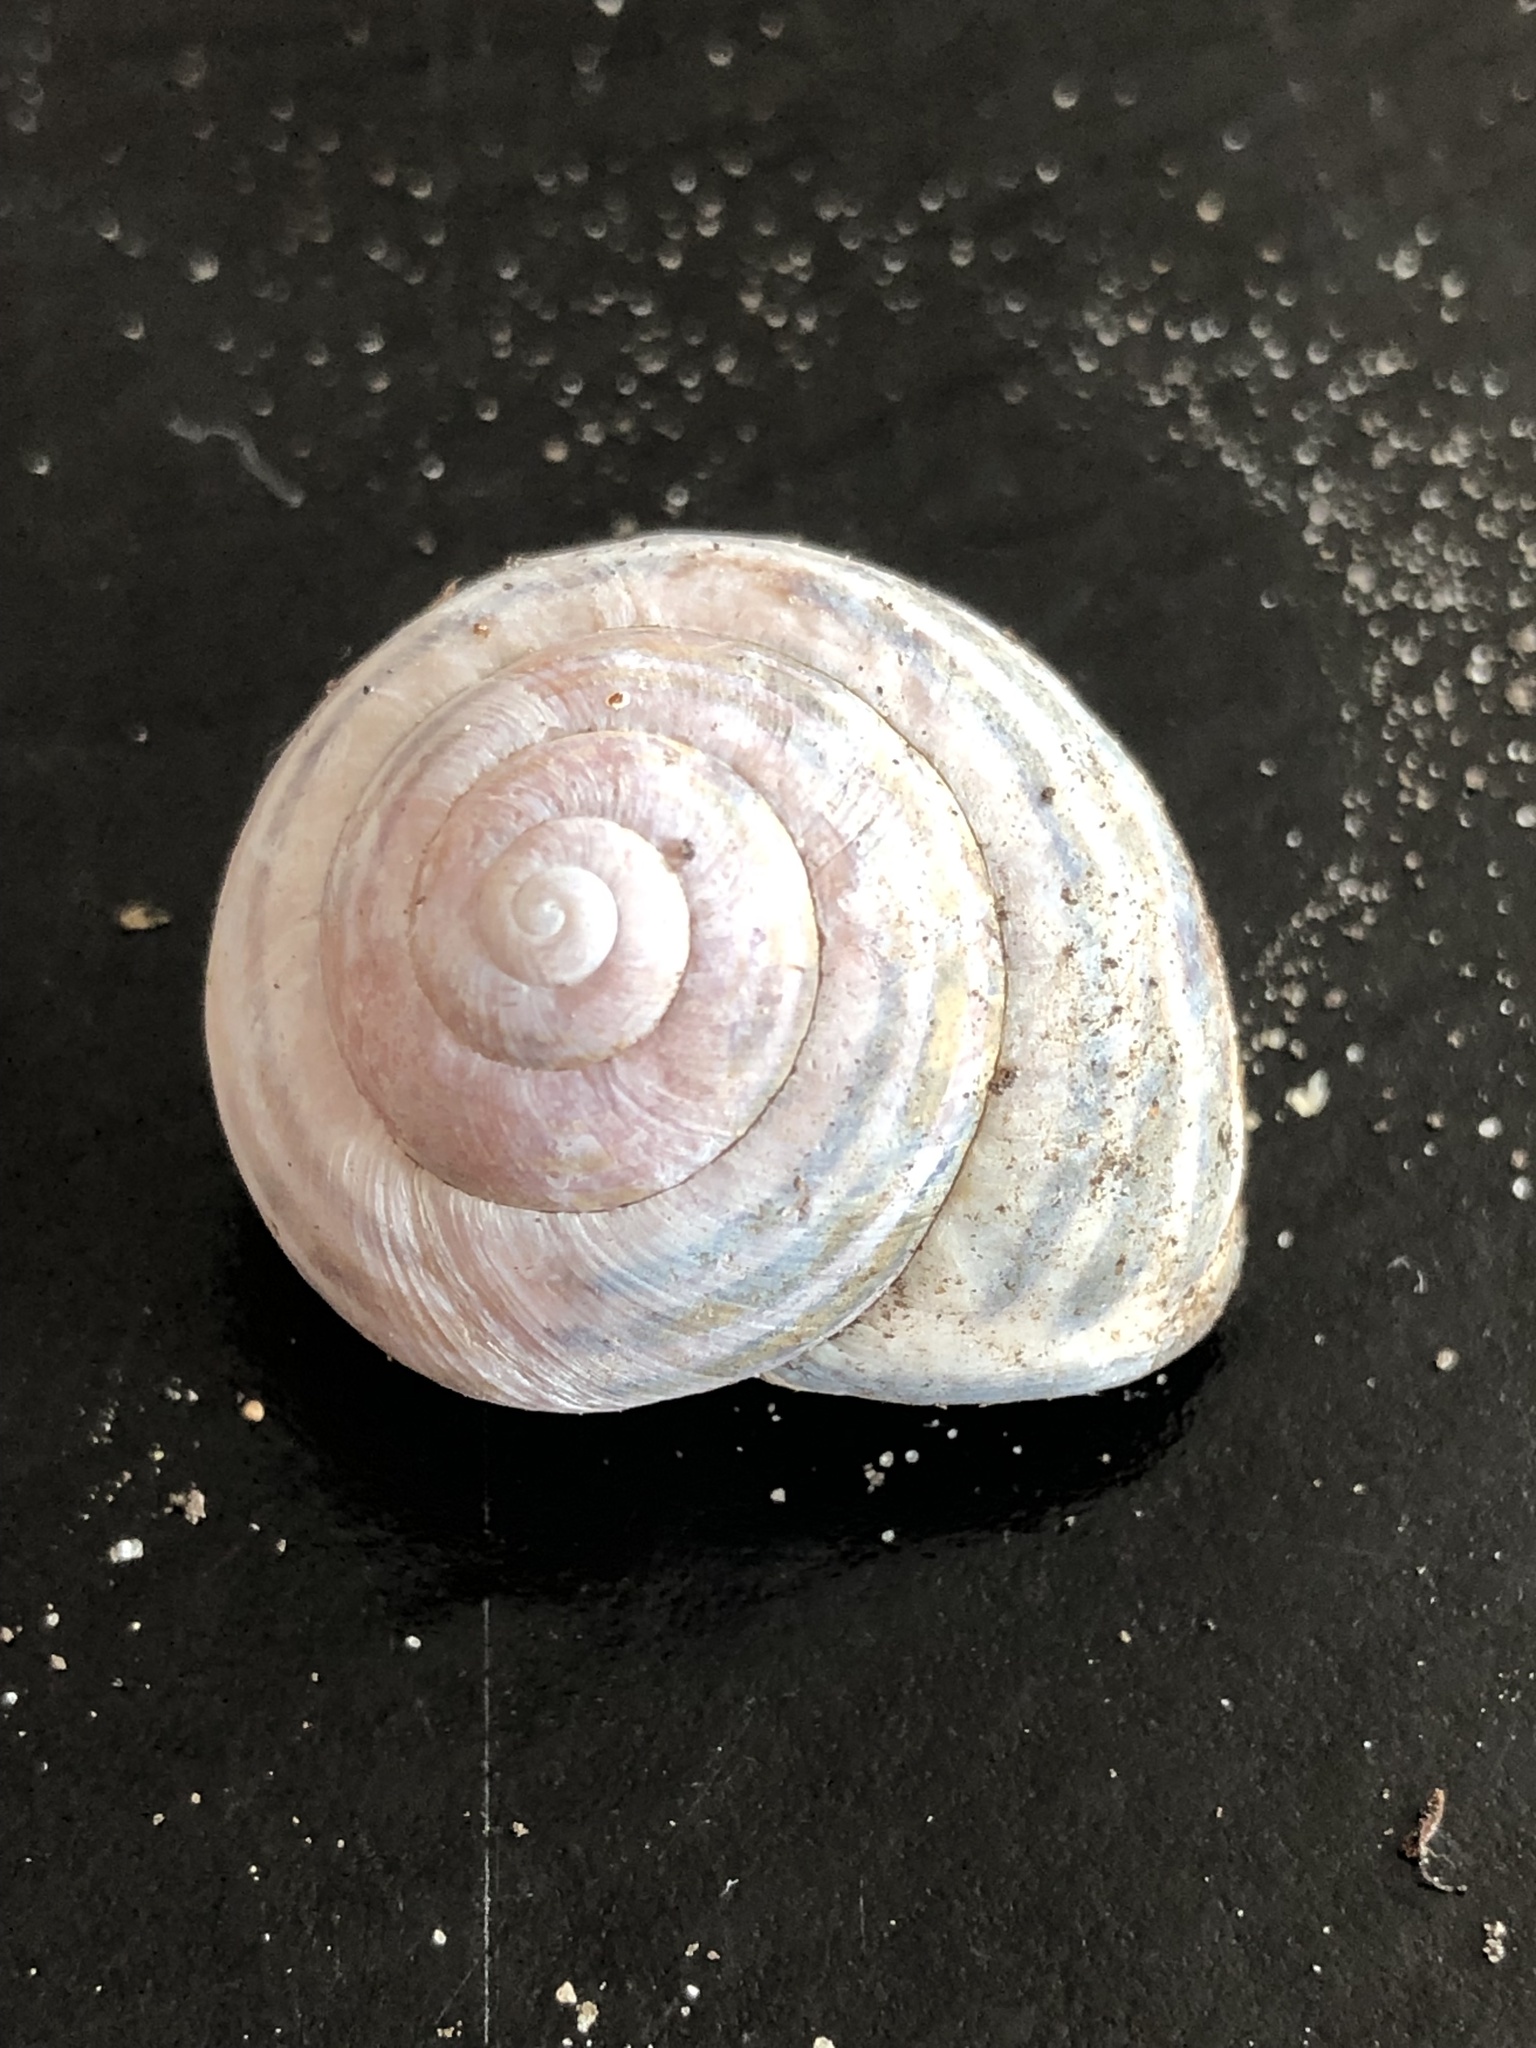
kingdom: Animalia
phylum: Mollusca
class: Gastropoda
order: Stylommatophora
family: Helicidae
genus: Cepaea
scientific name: Cepaea nemoralis
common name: Grovesnail
